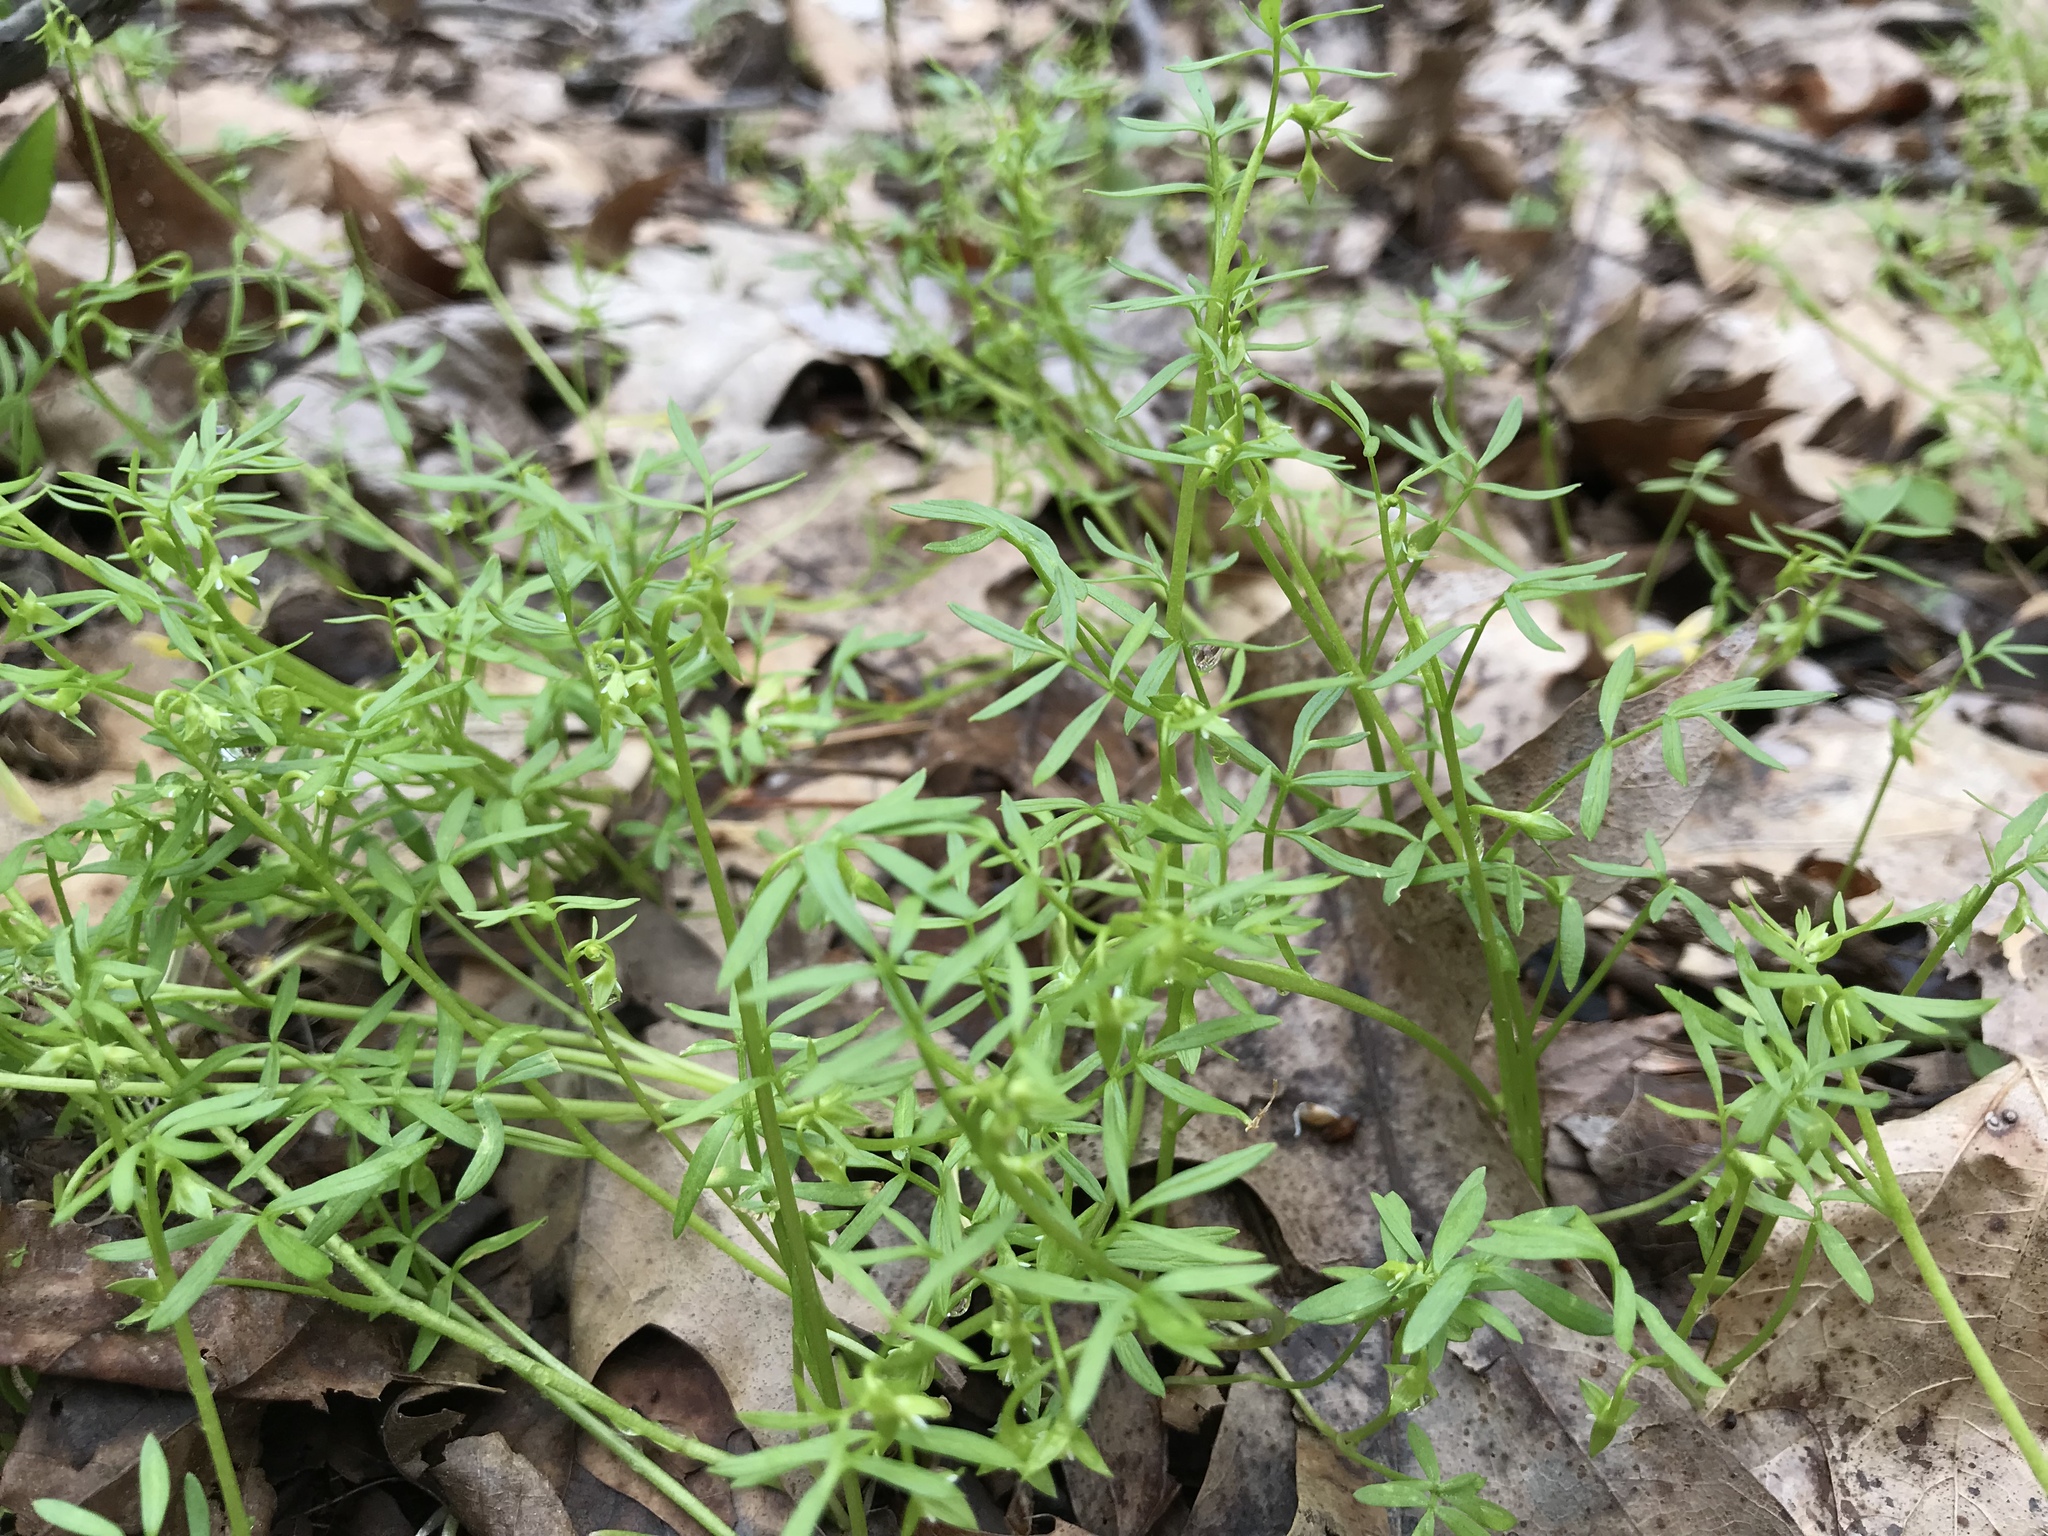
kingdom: Plantae
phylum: Tracheophyta
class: Magnoliopsida
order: Brassicales
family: Limnanthaceae
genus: Floerkea
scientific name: Floerkea proserpinacoides
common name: False mermaid
